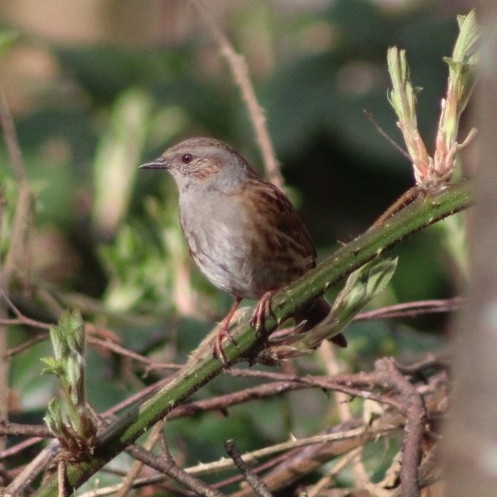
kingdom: Animalia
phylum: Chordata
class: Aves
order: Passeriformes
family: Prunellidae
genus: Prunella
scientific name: Prunella modularis
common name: Dunnock
